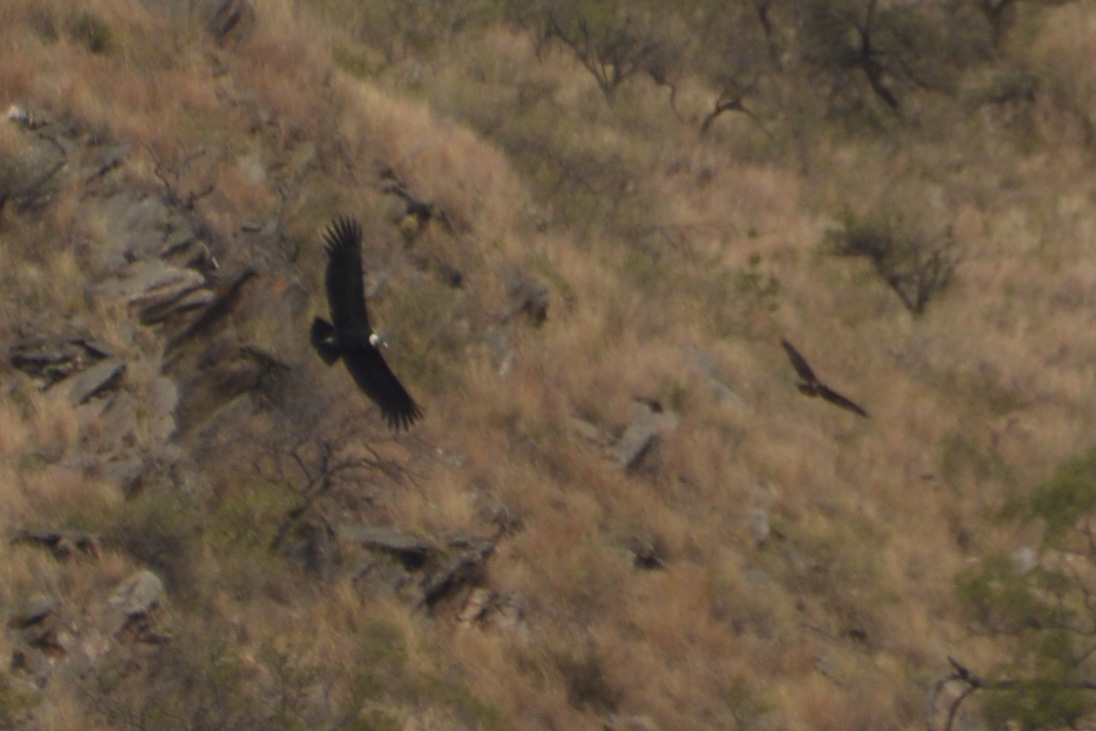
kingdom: Animalia
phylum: Chordata
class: Aves
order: Accipitriformes
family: Cathartidae
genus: Vultur
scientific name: Vultur gryphus
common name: Andean condor
